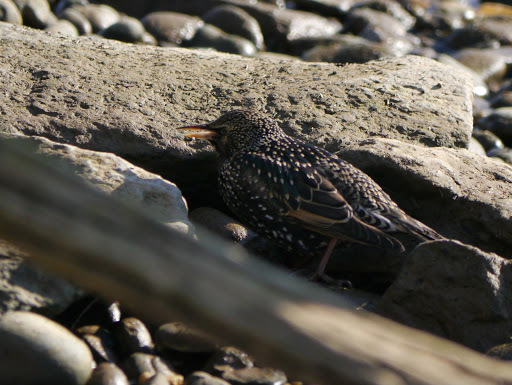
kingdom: Animalia
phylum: Chordata
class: Aves
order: Passeriformes
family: Sturnidae
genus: Sturnus
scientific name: Sturnus vulgaris
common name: Common starling
